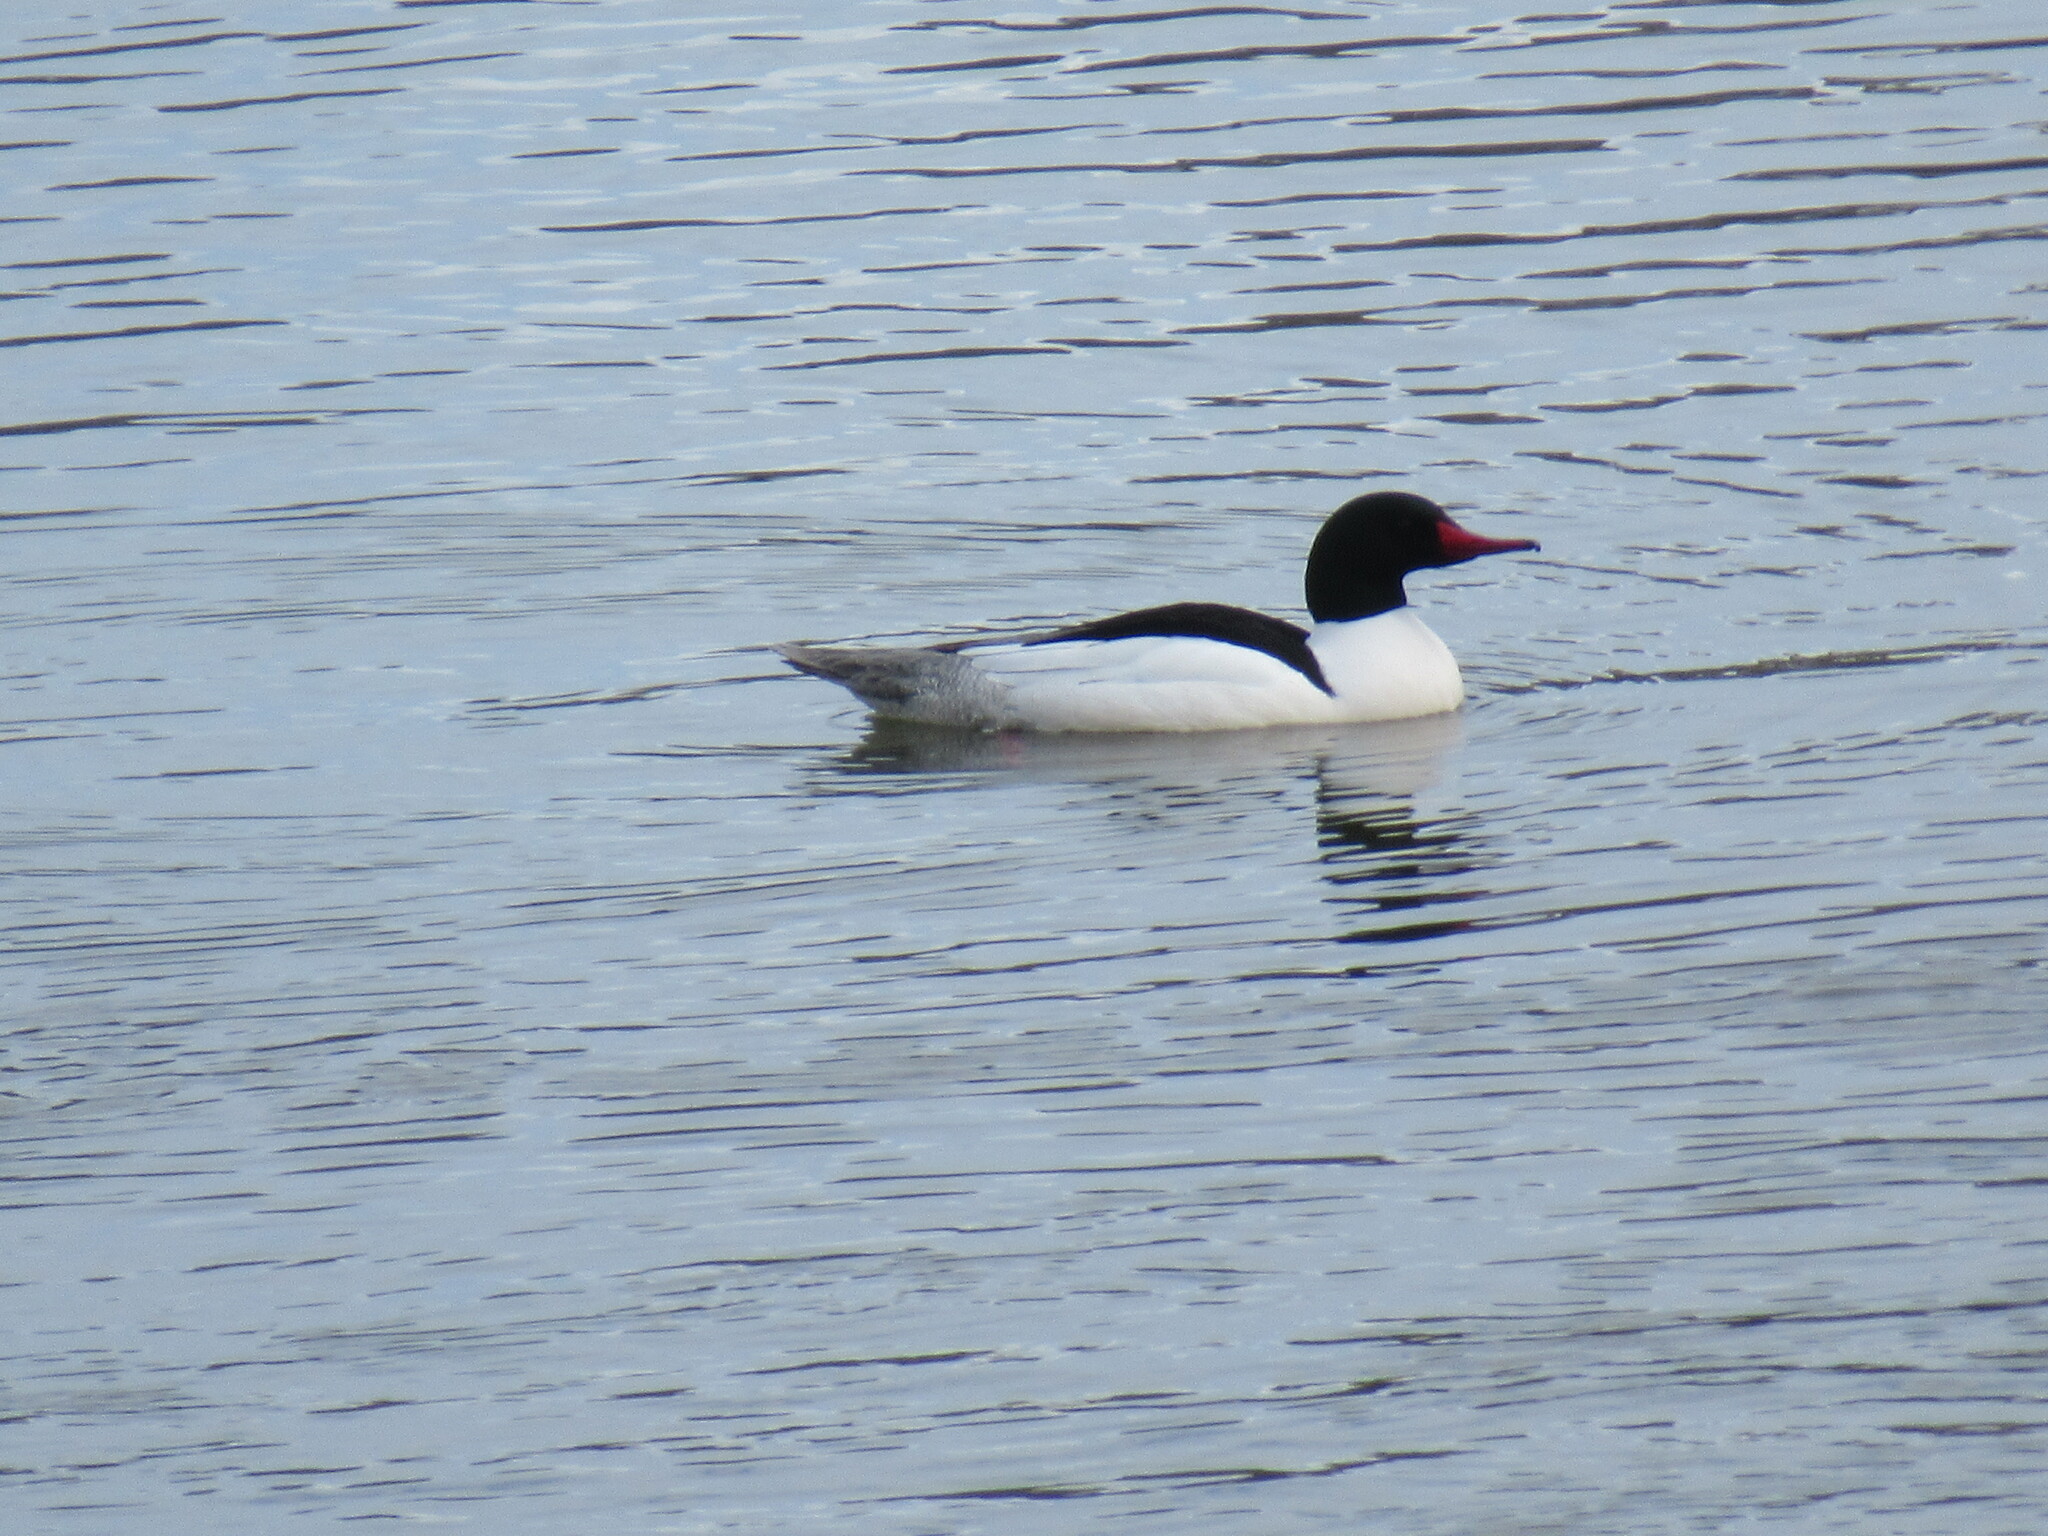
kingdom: Animalia
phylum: Chordata
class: Aves
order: Anseriformes
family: Anatidae
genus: Mergus
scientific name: Mergus merganser
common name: Common merganser
